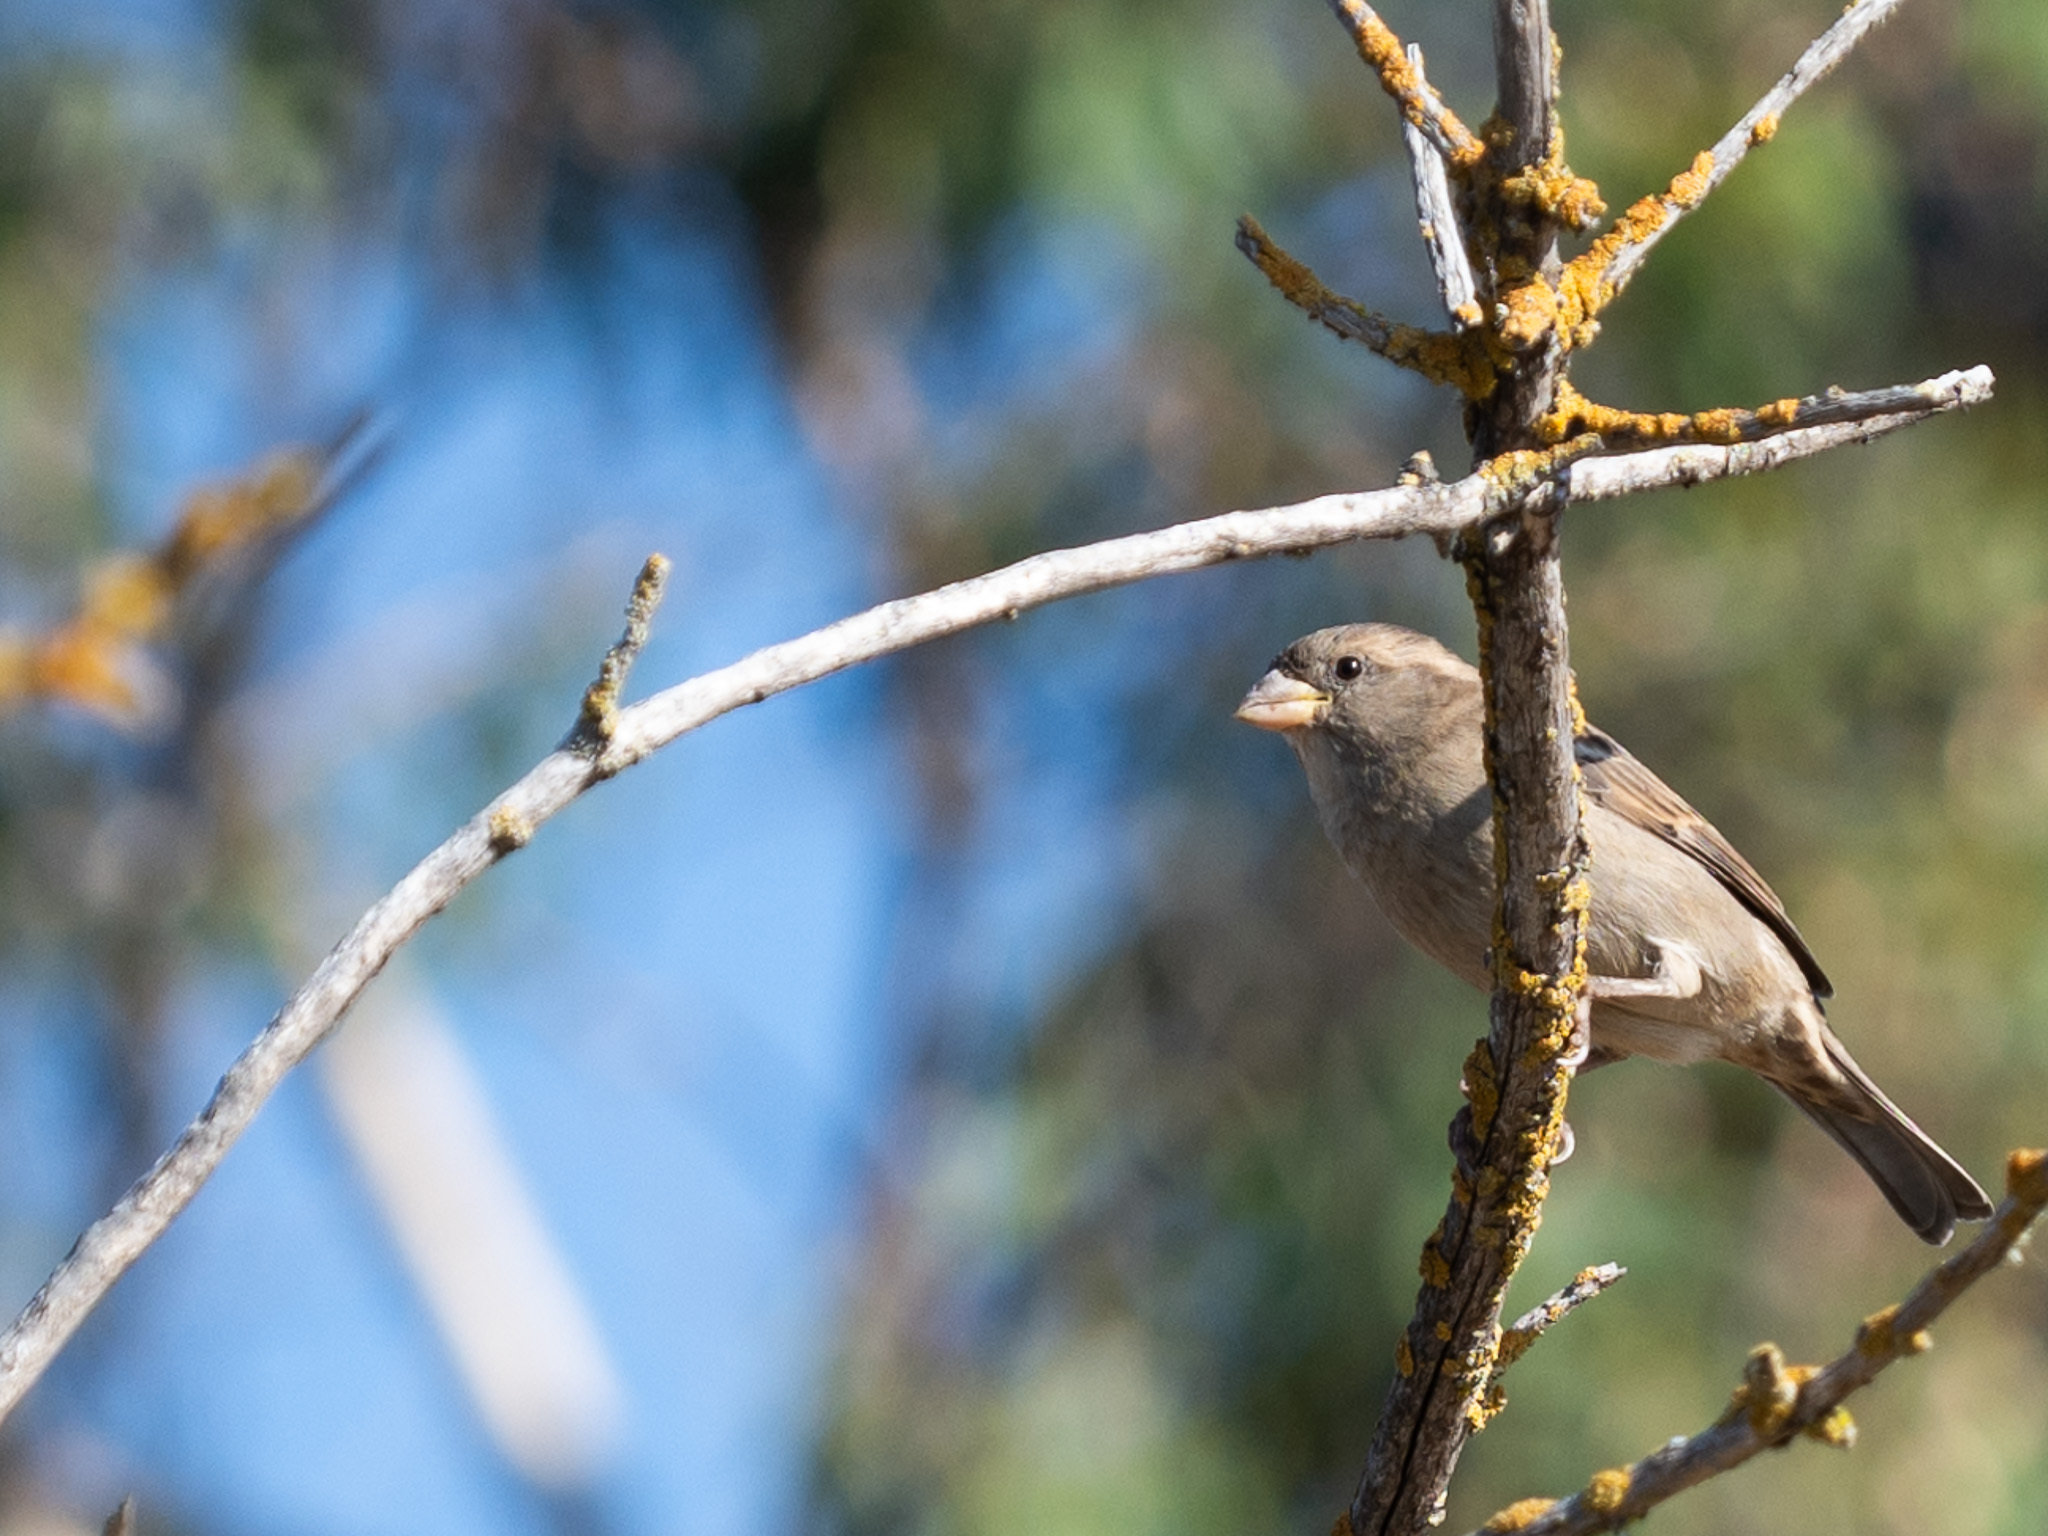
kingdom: Animalia
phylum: Chordata
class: Aves
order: Passeriformes
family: Passeridae
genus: Passer
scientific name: Passer domesticus
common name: House sparrow
